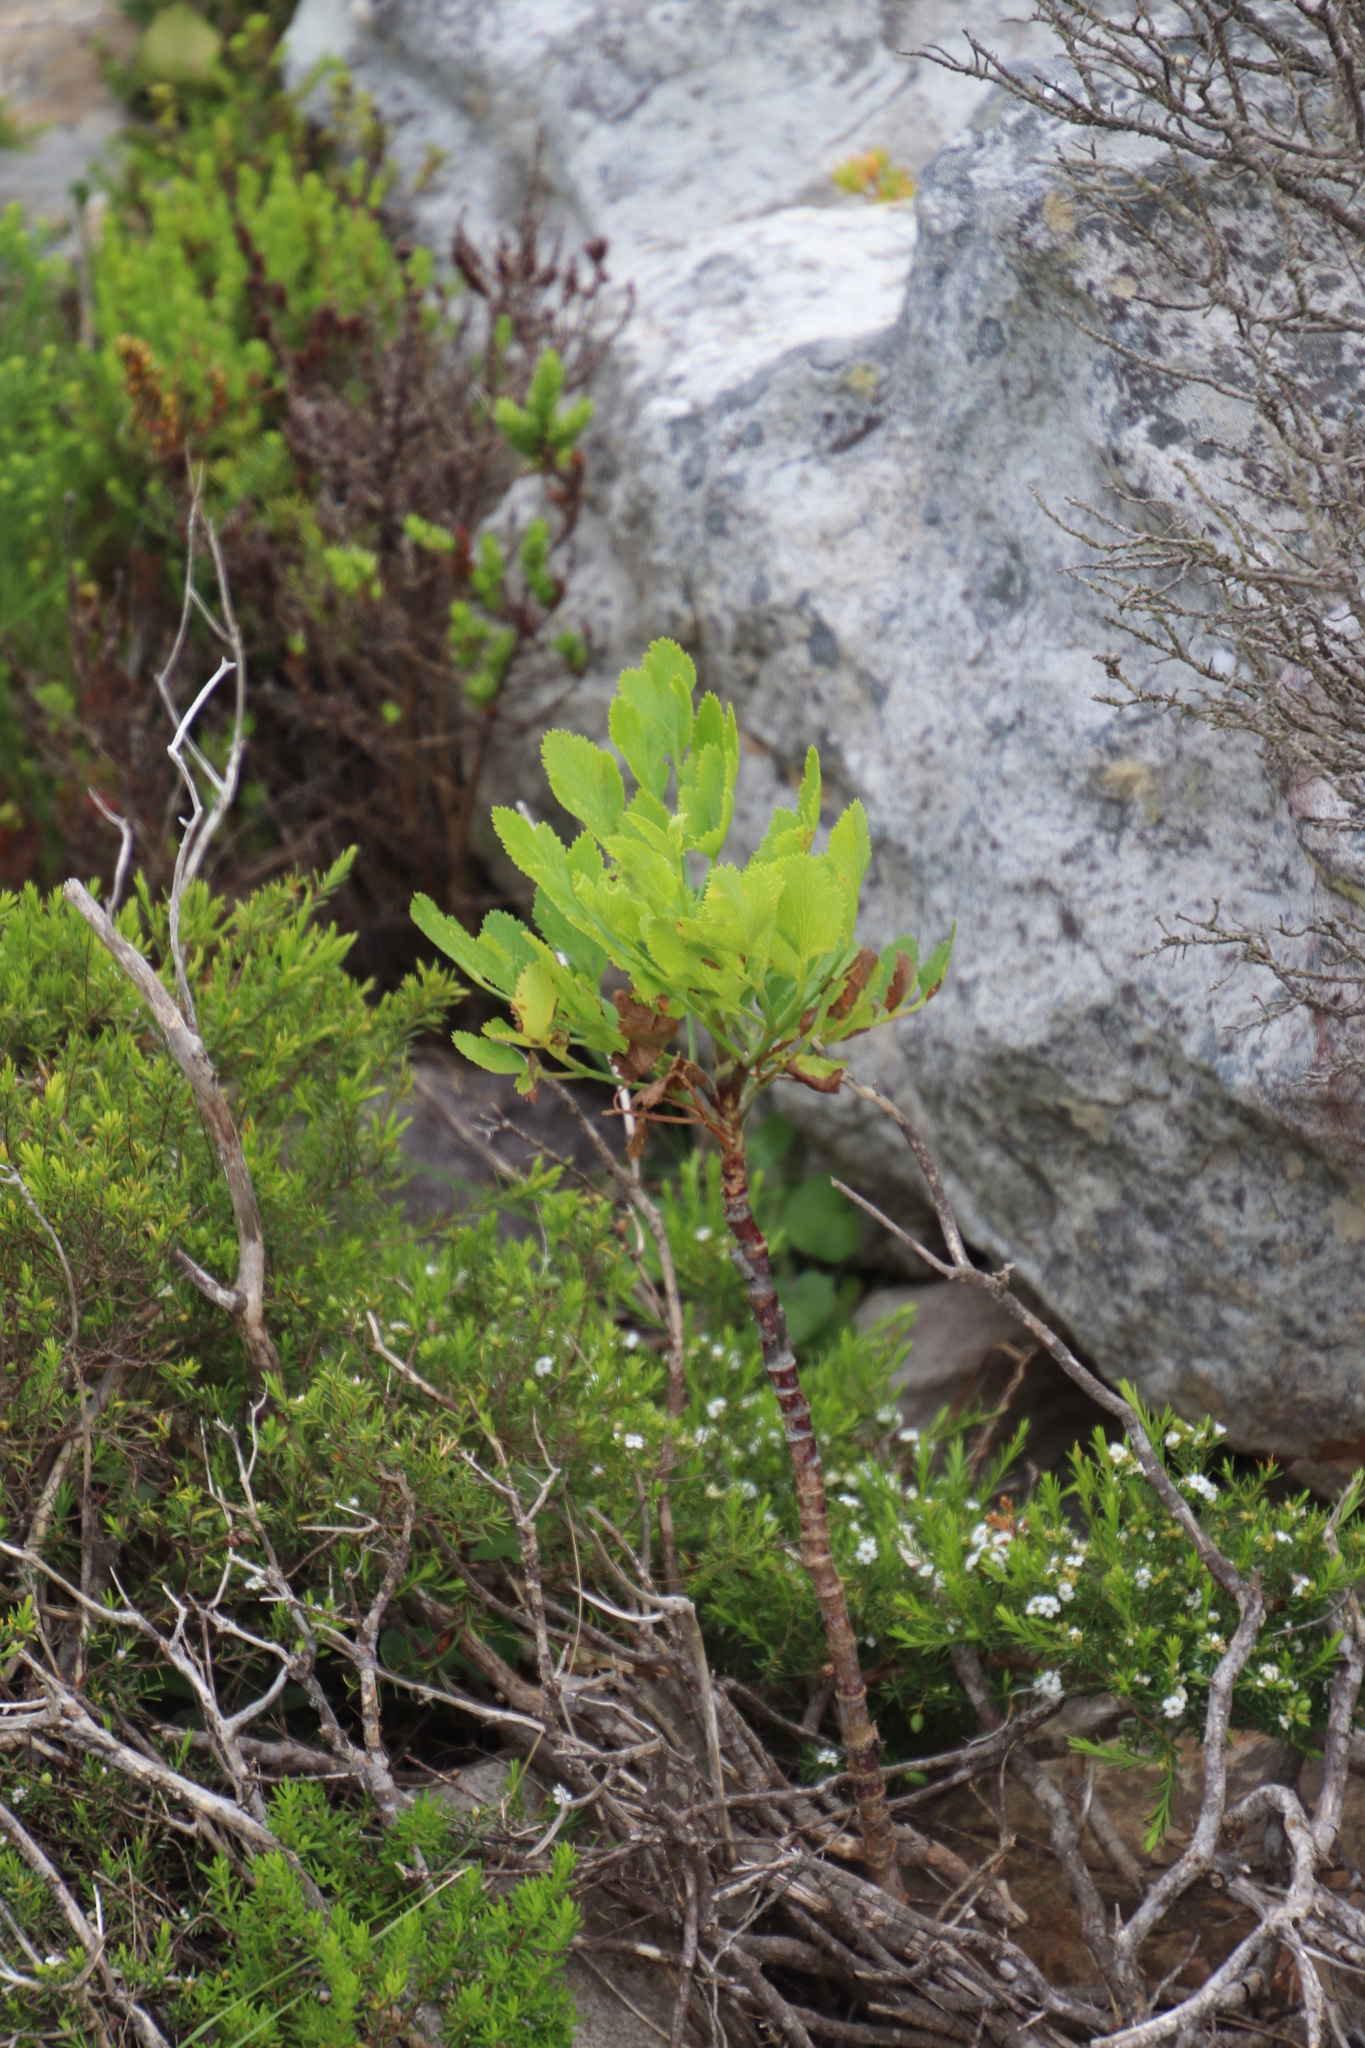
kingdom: Plantae
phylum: Tracheophyta
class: Magnoliopsida
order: Apiales
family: Apiaceae
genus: Notobubon
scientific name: Notobubon galbanum
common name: Blisterbush
